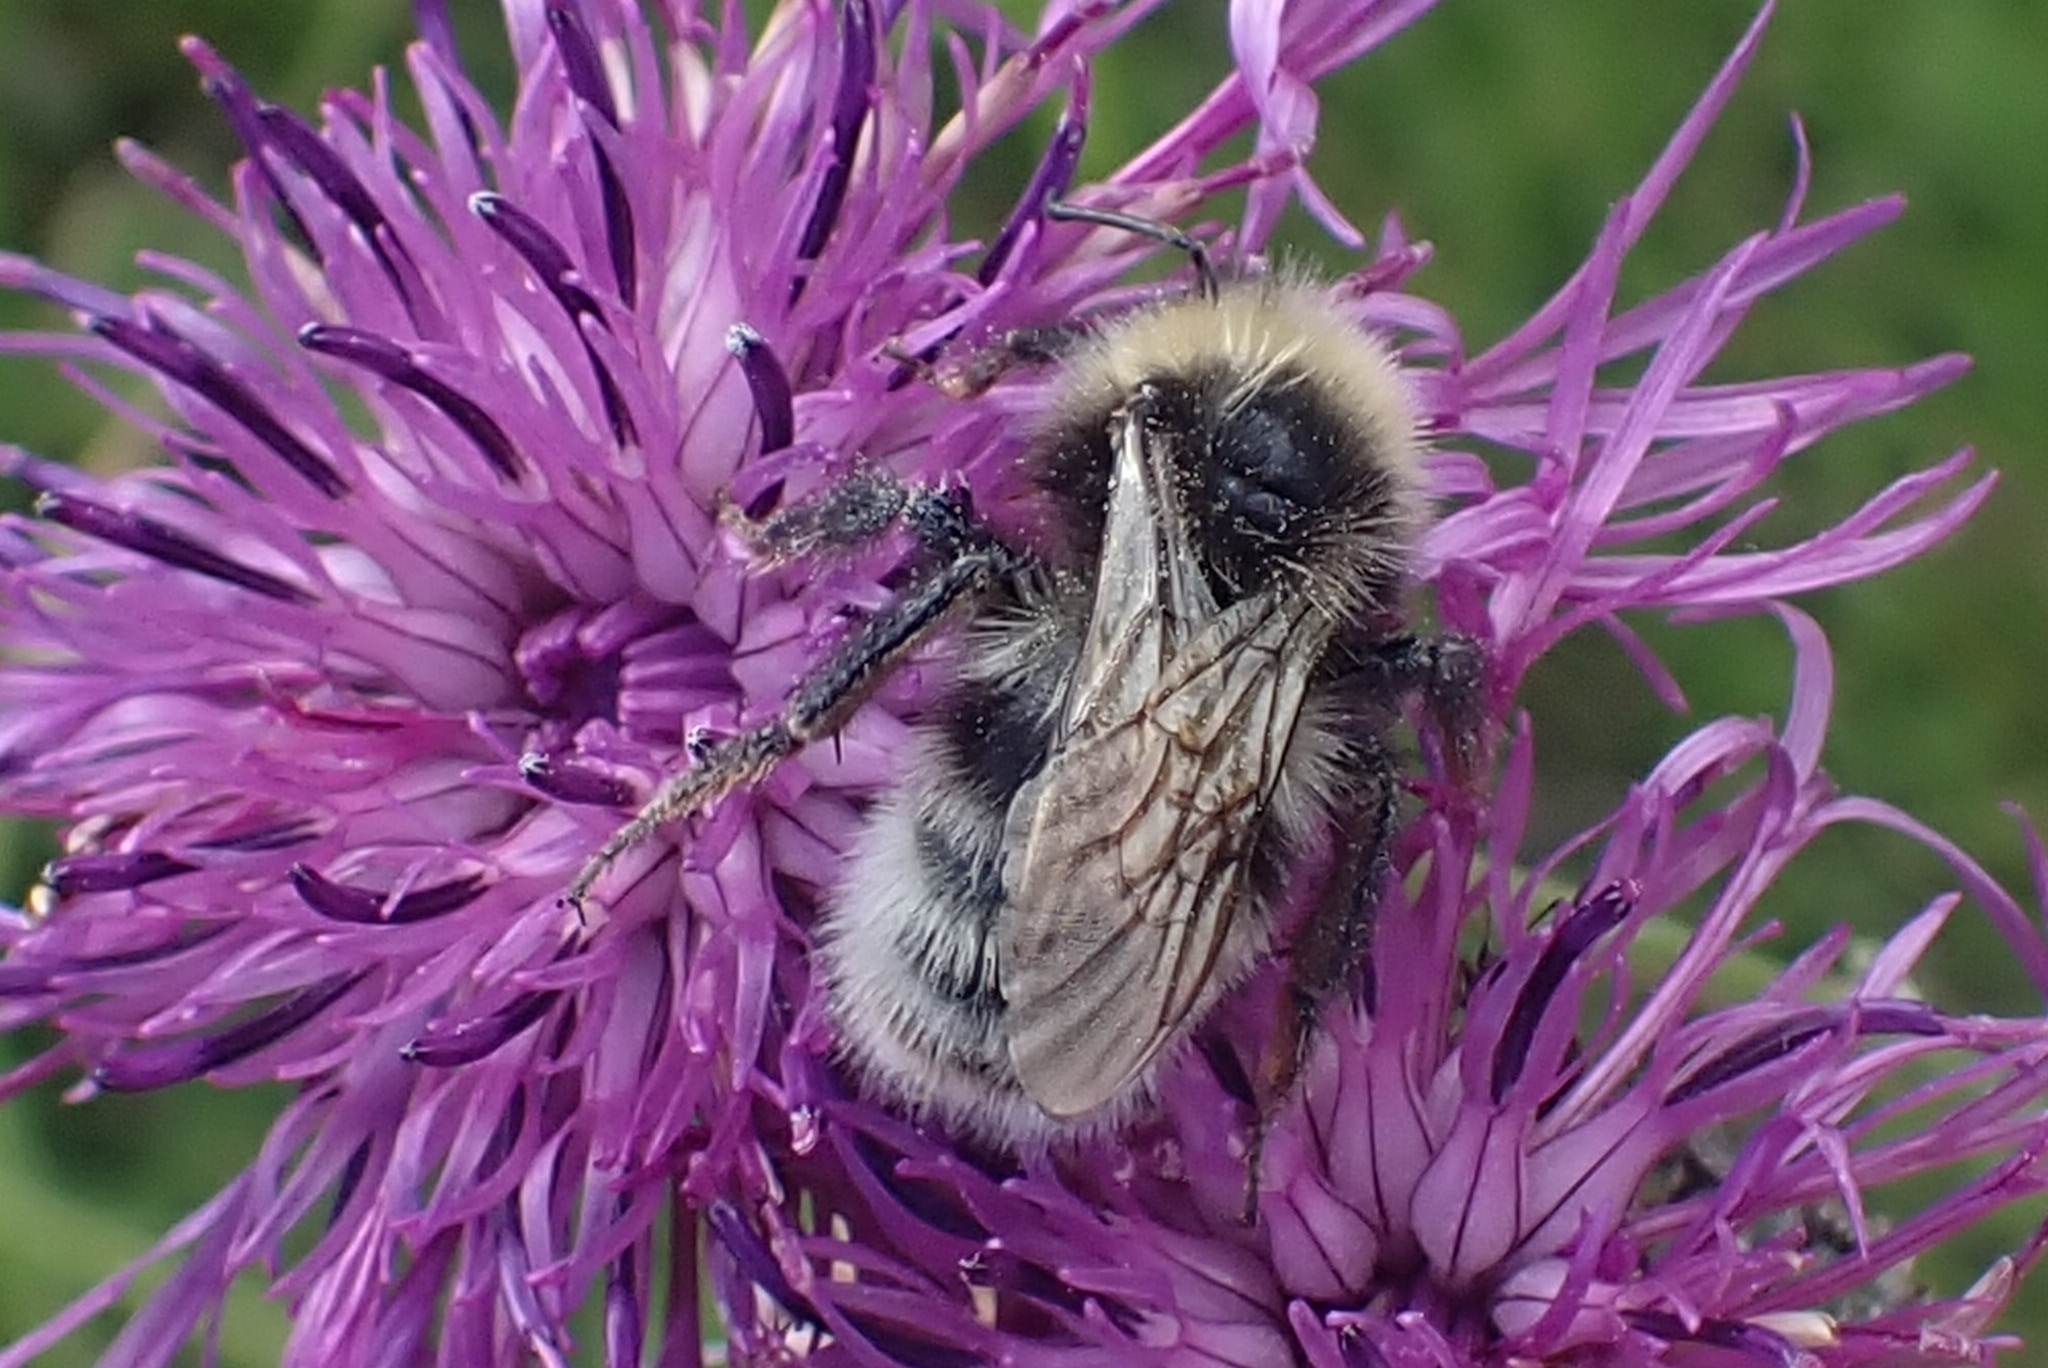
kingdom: Animalia
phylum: Arthropoda
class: Insecta
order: Hymenoptera
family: Apidae
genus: Bombus
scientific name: Bombus bohemicus
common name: Gypsy cuckoo bee
